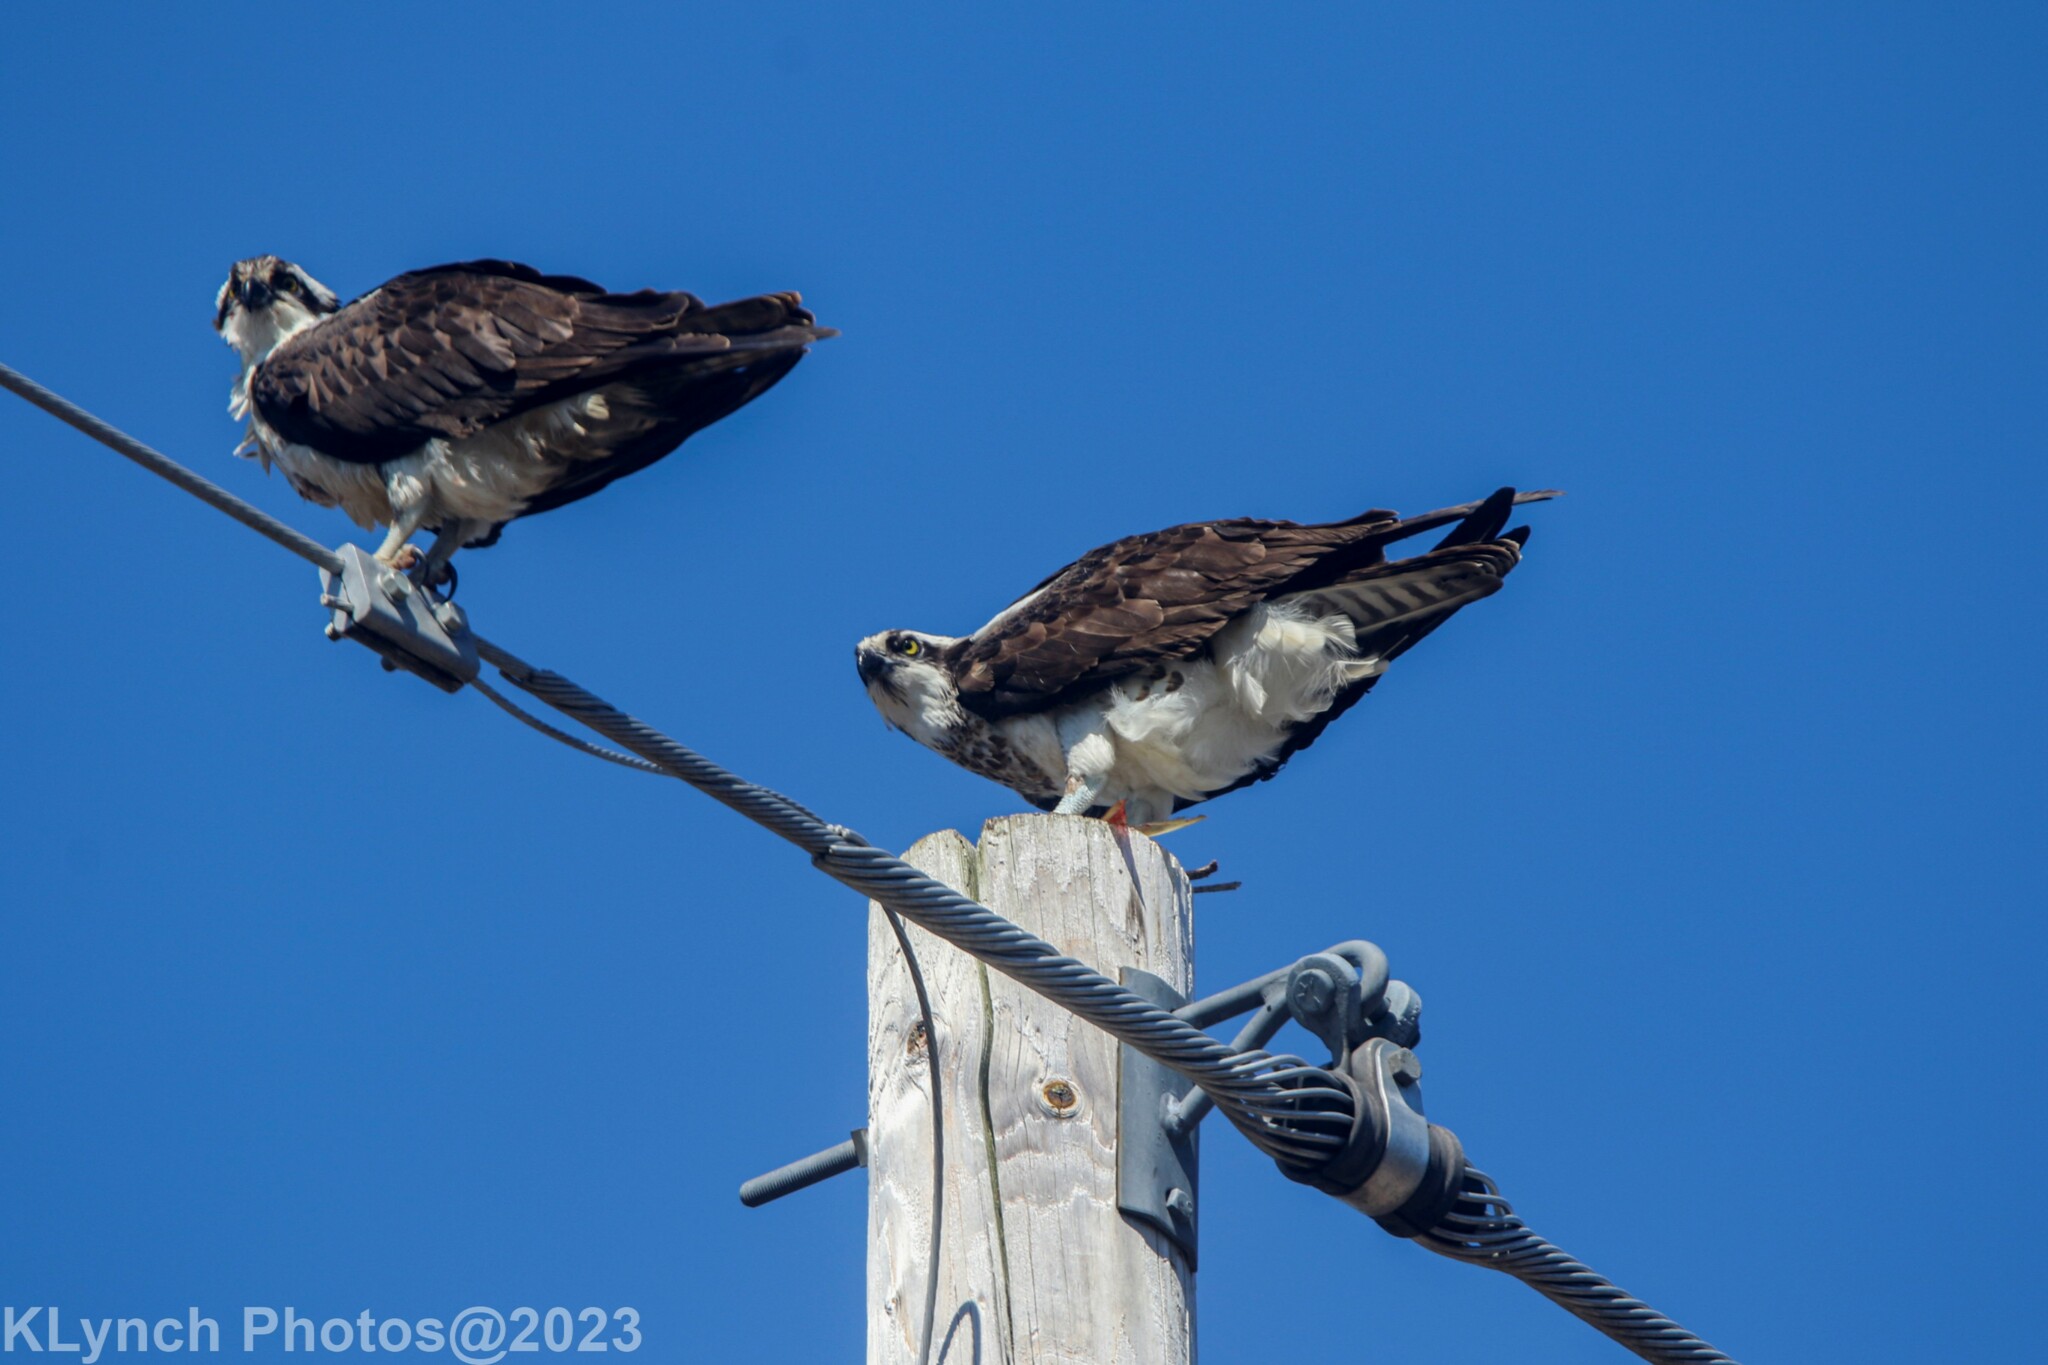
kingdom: Animalia
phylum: Chordata
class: Aves
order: Accipitriformes
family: Pandionidae
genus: Pandion
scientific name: Pandion haliaetus
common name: Osprey
